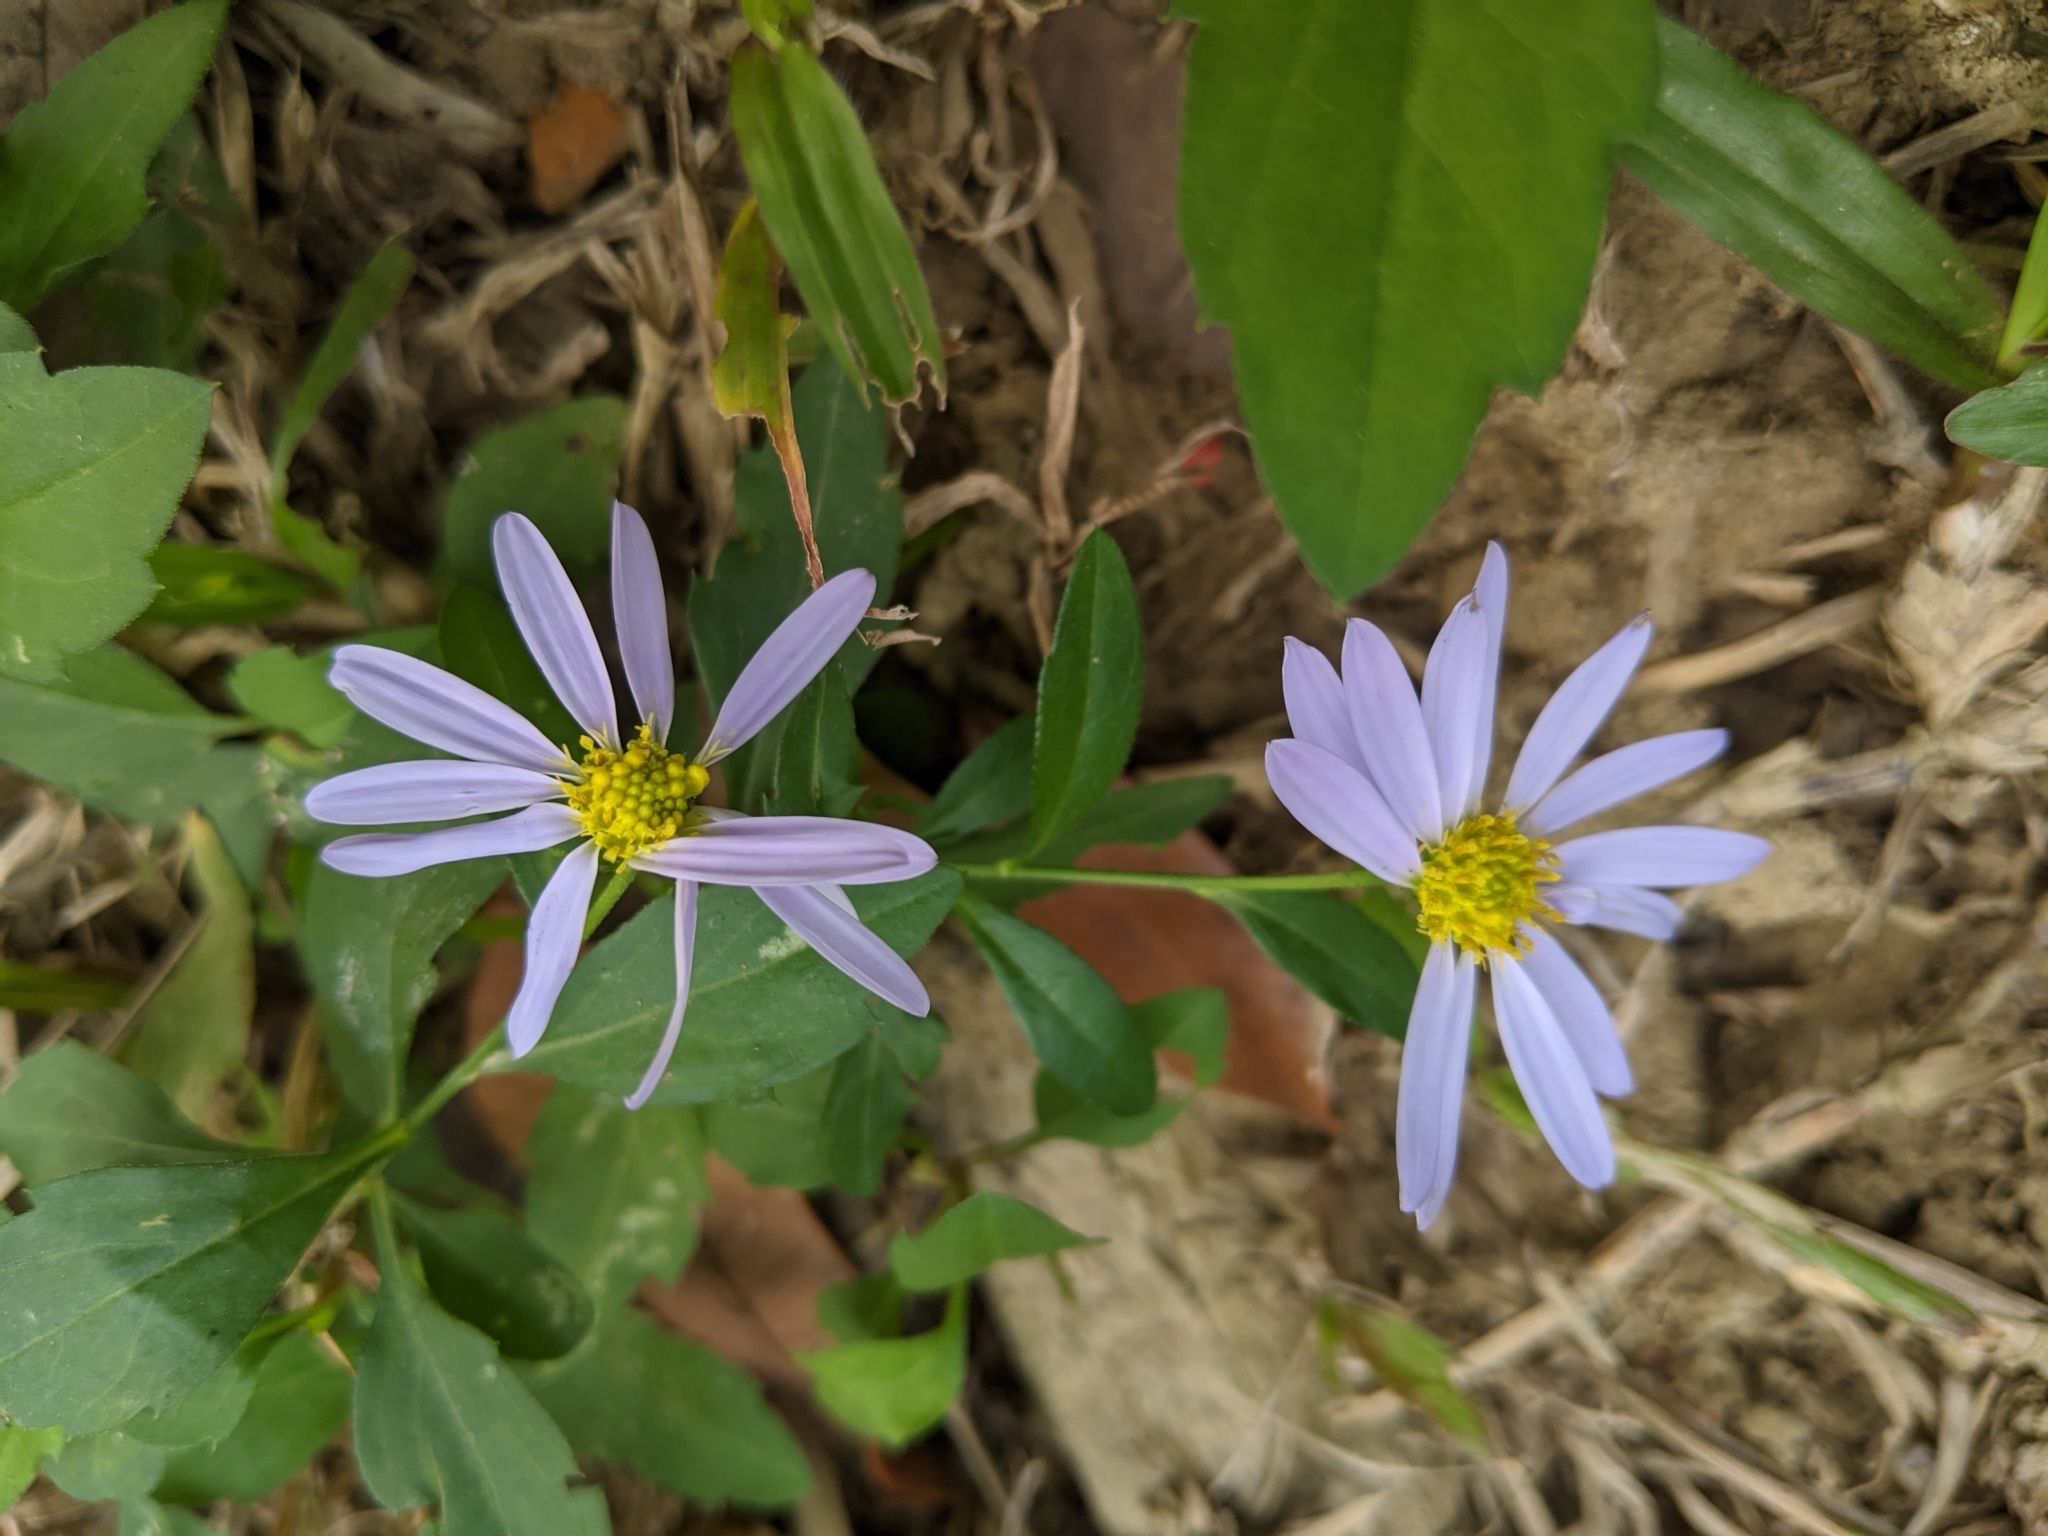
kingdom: Plantae
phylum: Tracheophyta
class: Magnoliopsida
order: Asterales
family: Asteraceae
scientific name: Asteraceae
